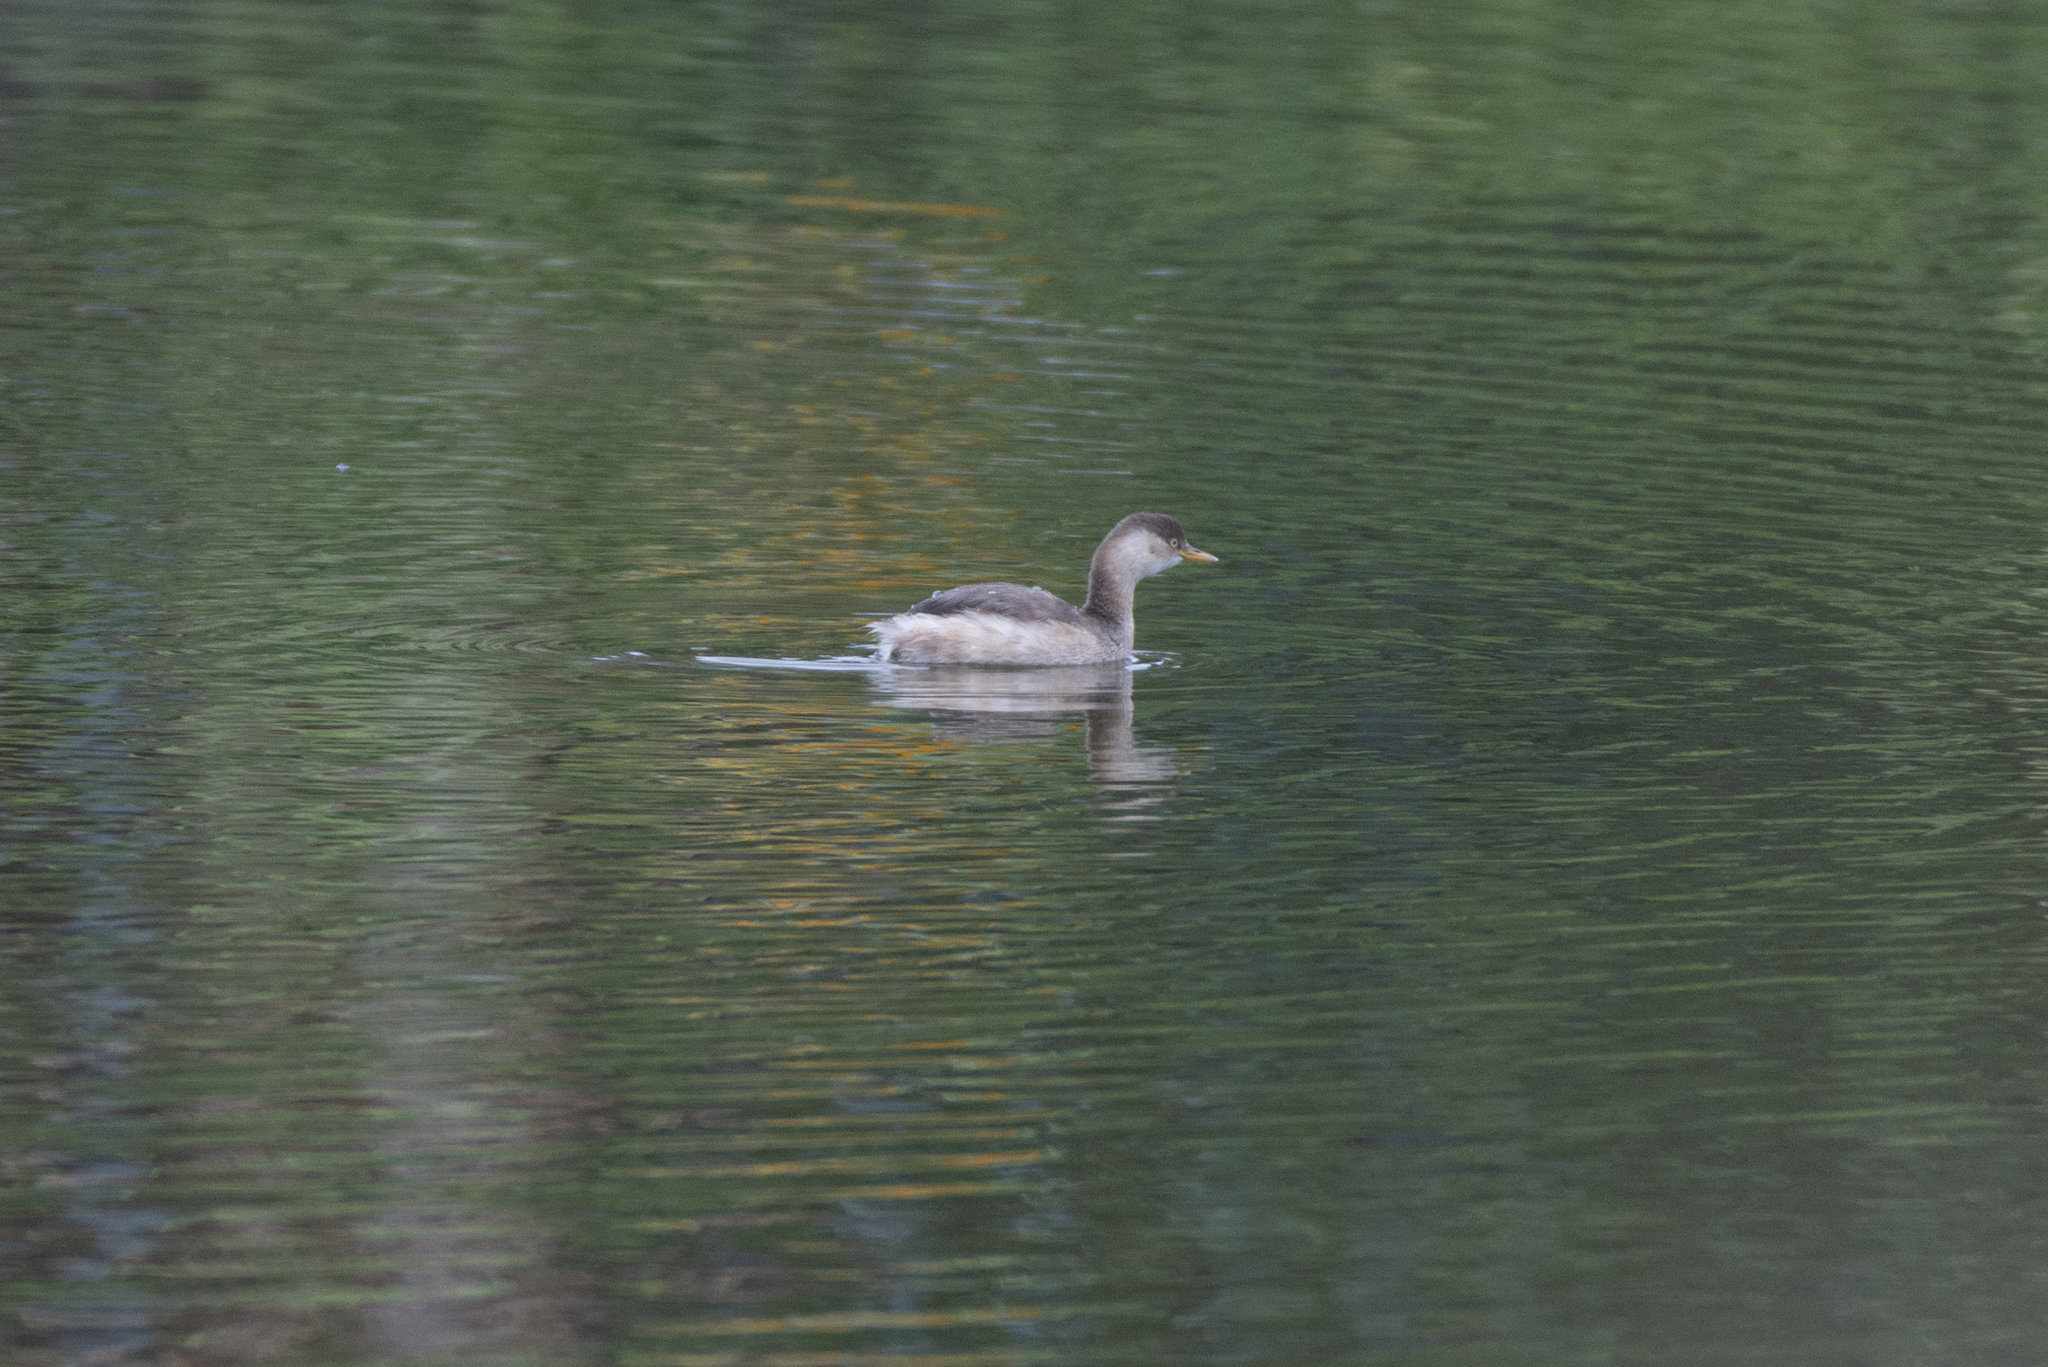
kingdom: Animalia
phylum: Chordata
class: Aves
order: Podicipediformes
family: Podicipedidae
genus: Tachybaptus
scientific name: Tachybaptus ruficollis
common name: Little grebe
